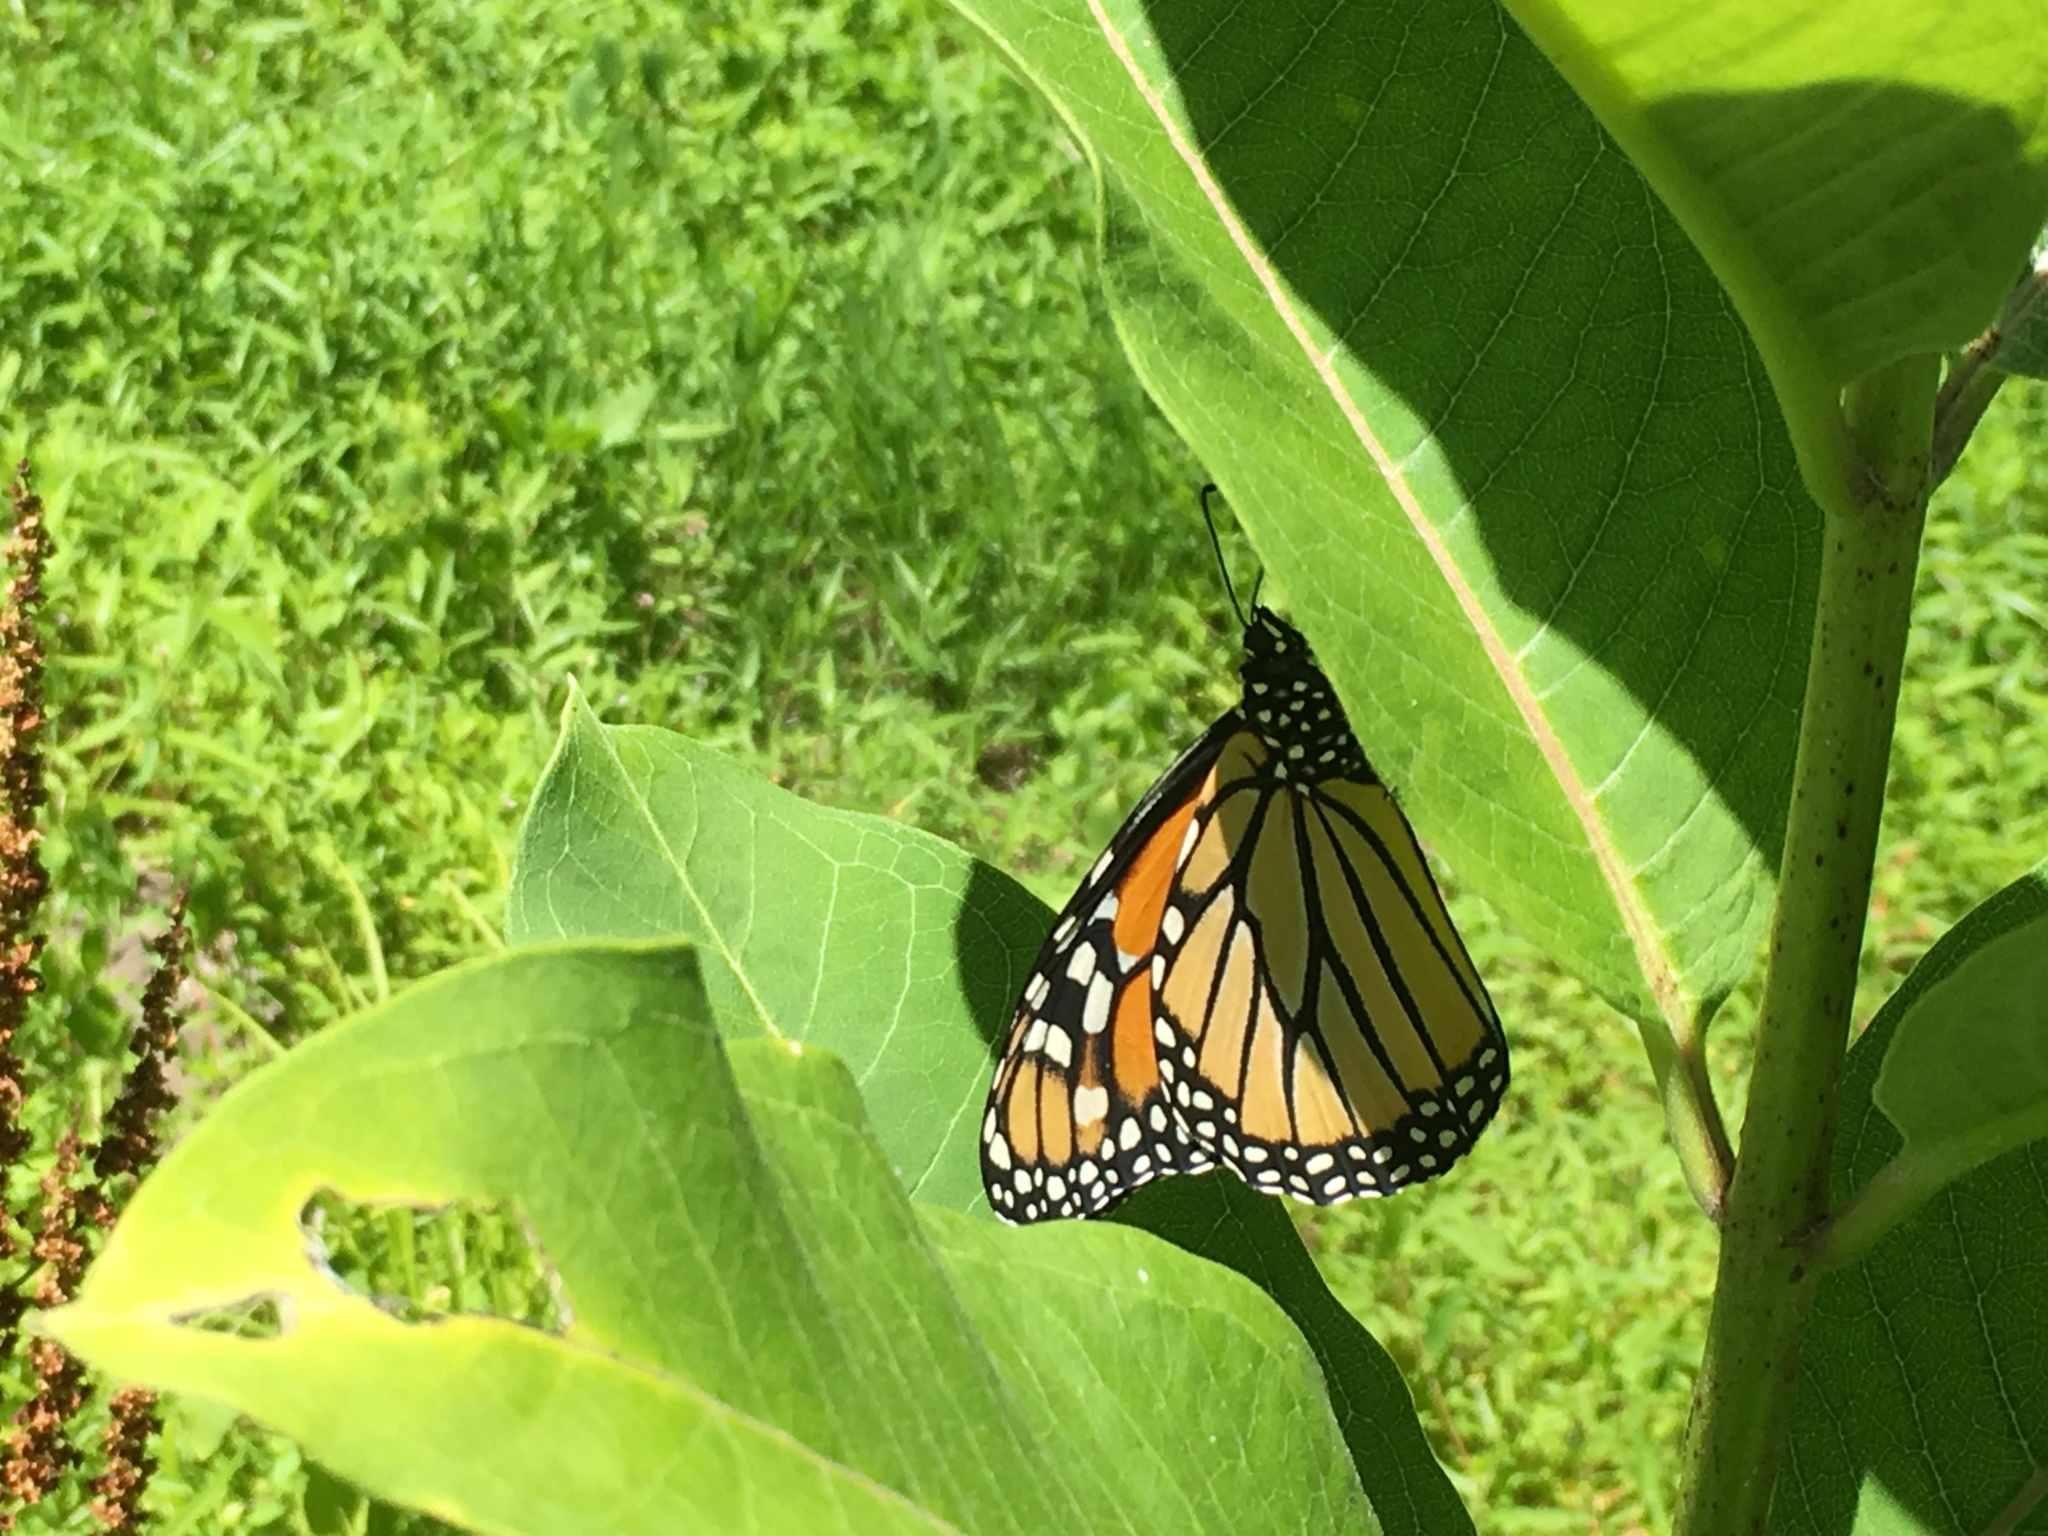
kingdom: Animalia
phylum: Arthropoda
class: Insecta
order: Lepidoptera
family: Nymphalidae
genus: Danaus
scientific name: Danaus plexippus
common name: Monarch
